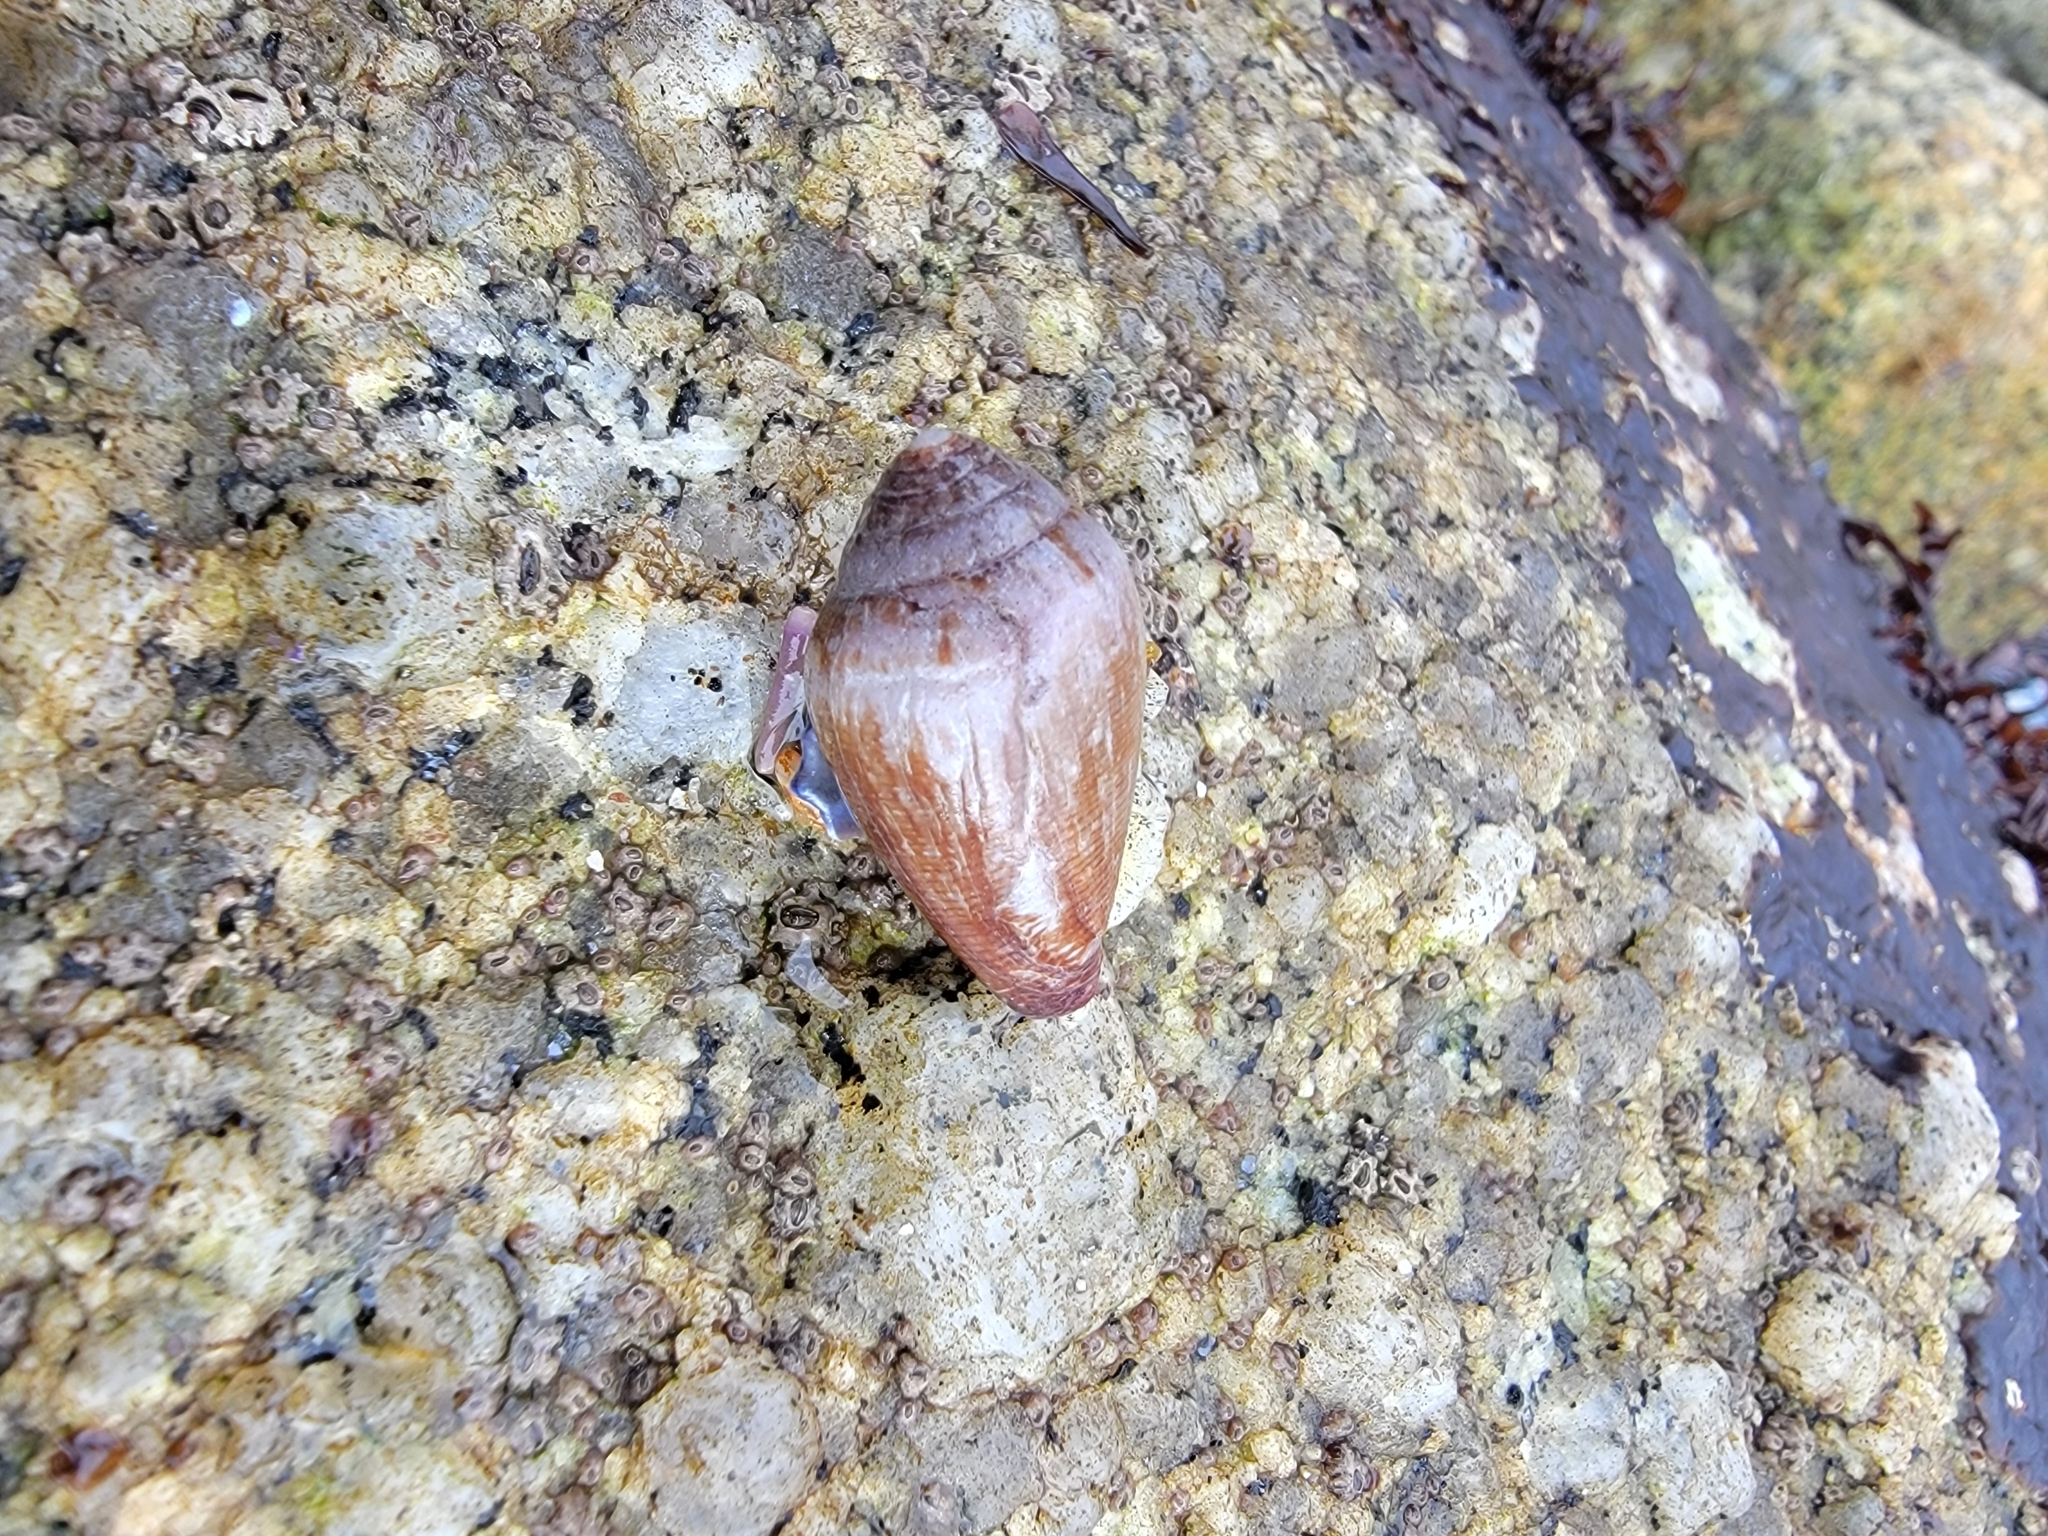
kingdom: Animalia
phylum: Mollusca
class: Gastropoda
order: Neogastropoda
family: Conidae
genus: Californiconus
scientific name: Californiconus californicus
